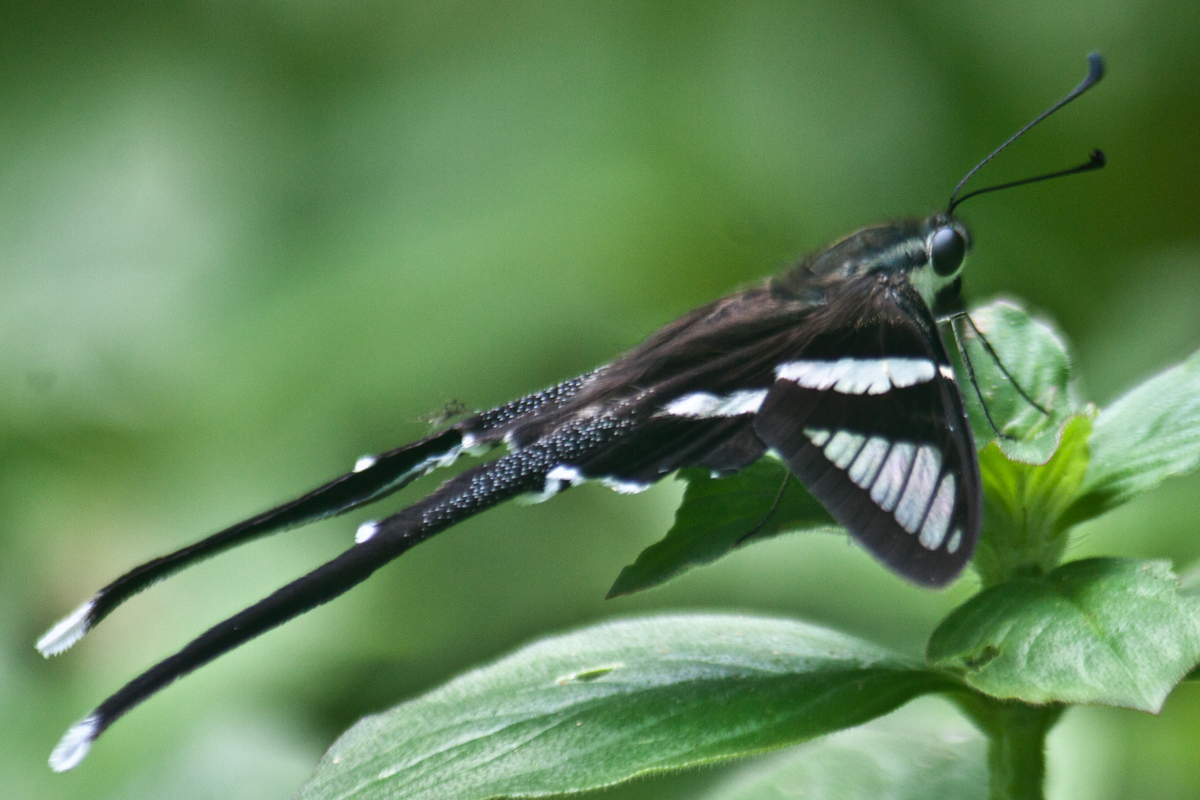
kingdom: Animalia
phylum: Arthropoda
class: Insecta
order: Lepidoptera
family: Papilionidae
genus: Lamproptera
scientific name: Lamproptera curius
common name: White dragontail
